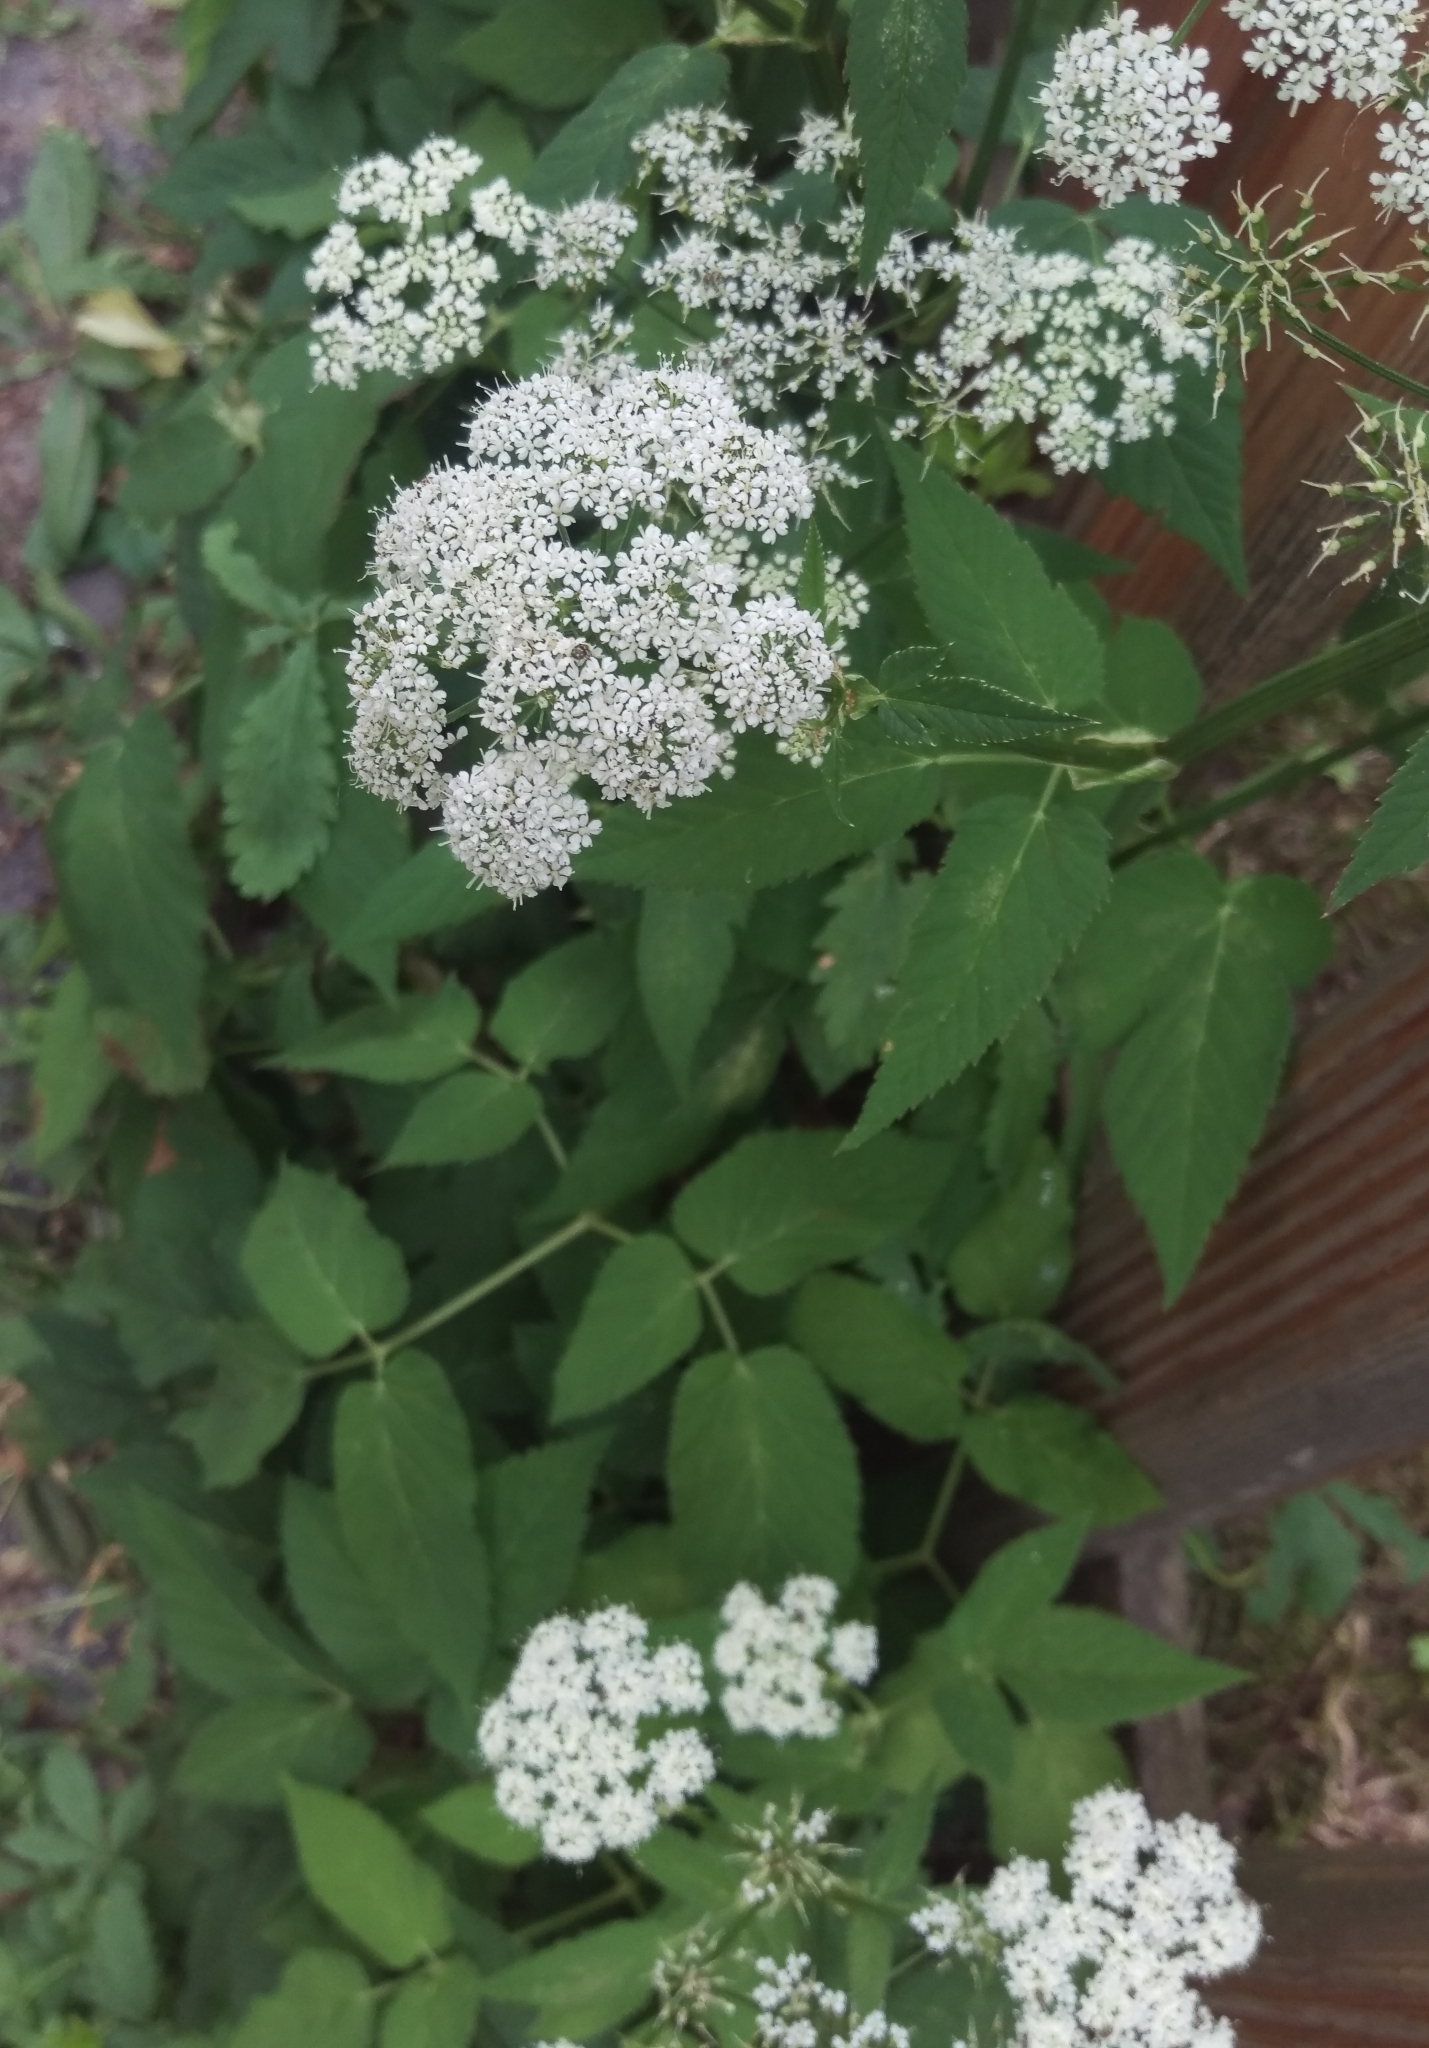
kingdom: Plantae
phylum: Tracheophyta
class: Magnoliopsida
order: Apiales
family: Apiaceae
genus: Aegopodium
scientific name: Aegopodium podagraria
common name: Ground-elder
